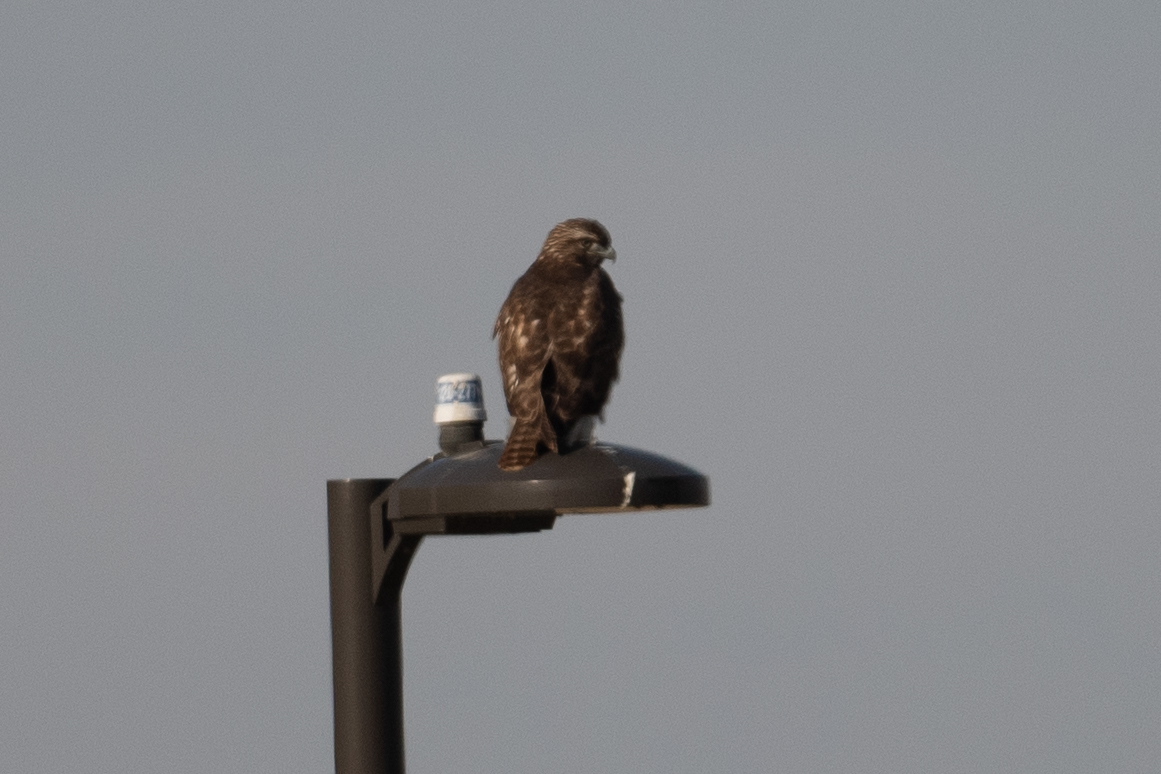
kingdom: Animalia
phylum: Chordata
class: Aves
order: Accipitriformes
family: Accipitridae
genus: Buteo
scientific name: Buteo jamaicensis
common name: Red-tailed hawk
